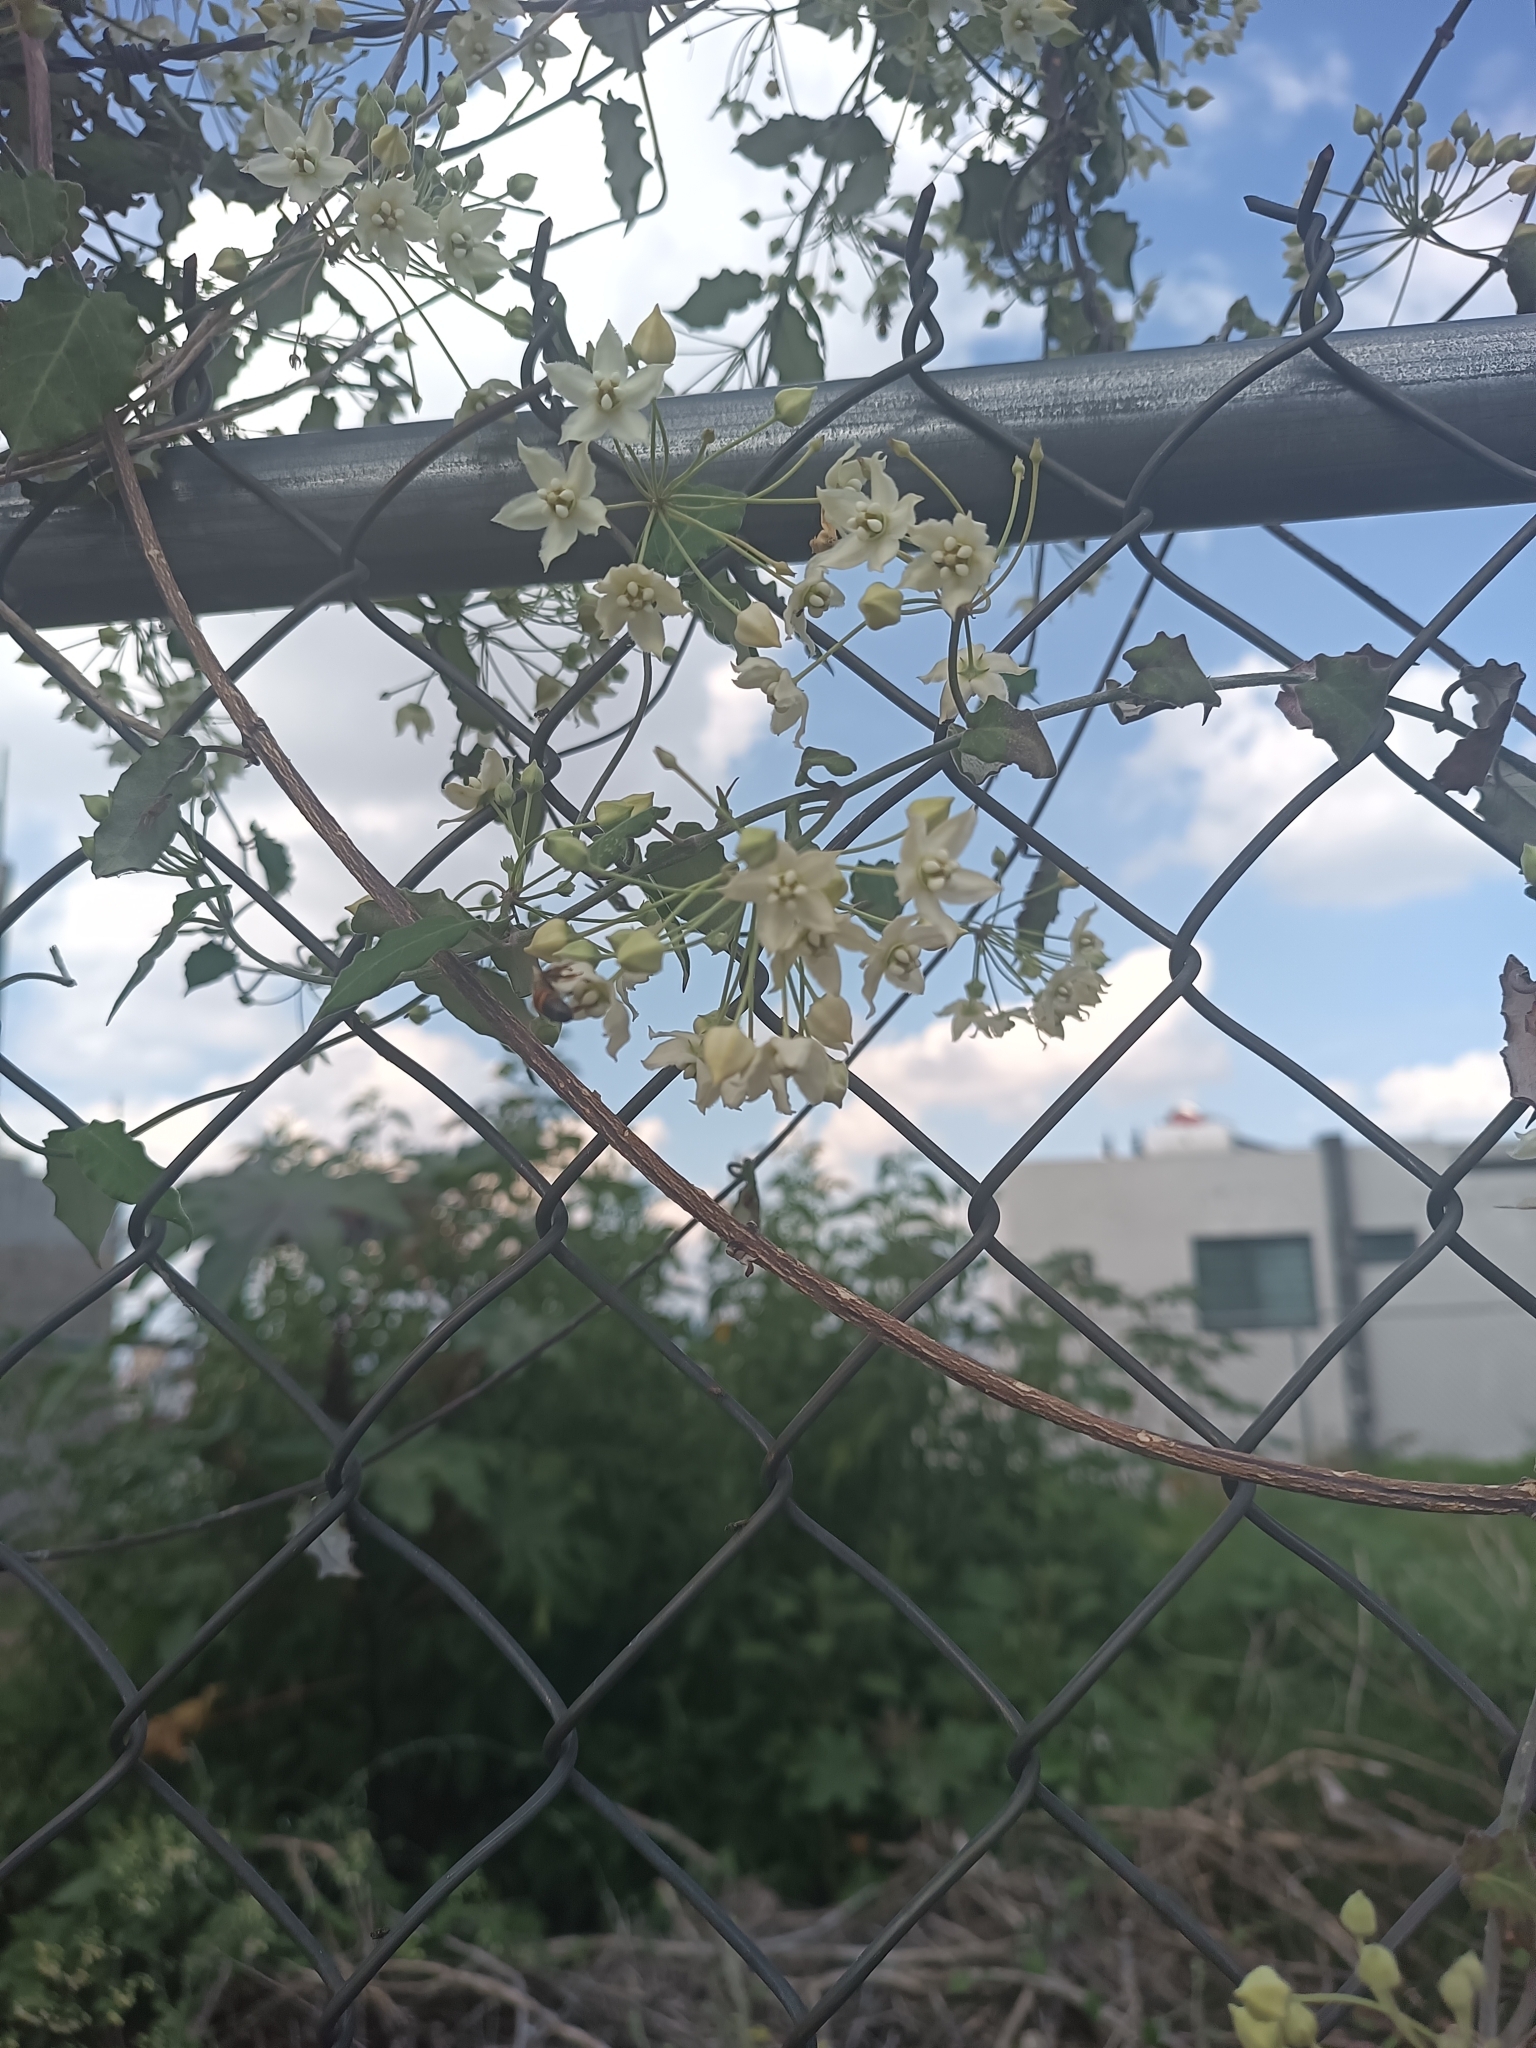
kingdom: Plantae
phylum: Tracheophyta
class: Magnoliopsida
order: Gentianales
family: Apocynaceae
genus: Funastrum
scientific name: Funastrum pannosum
